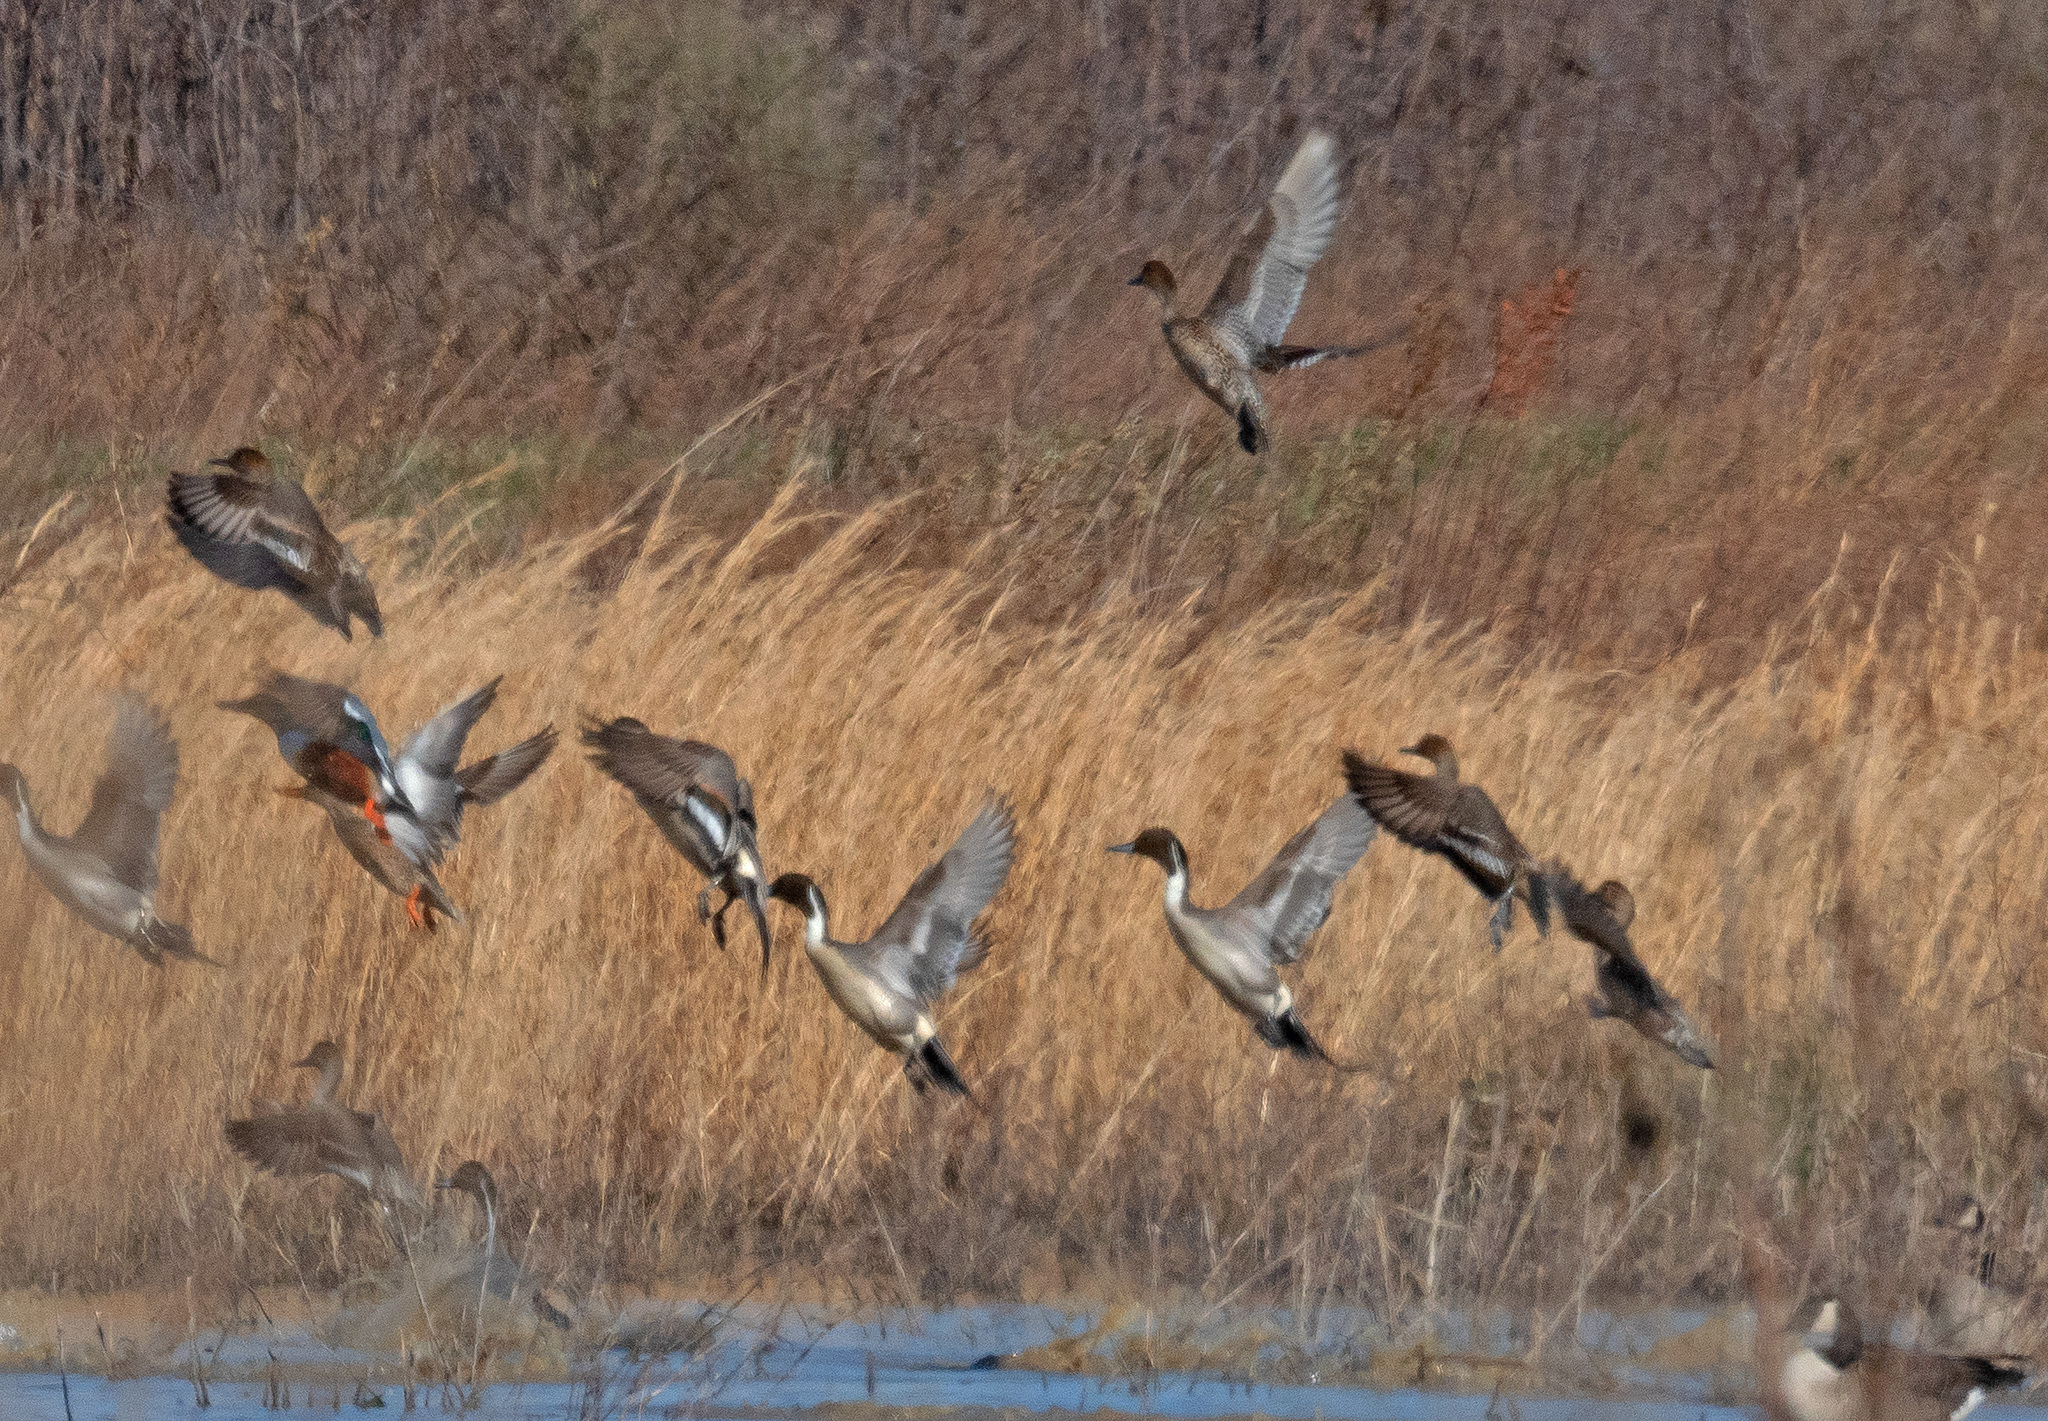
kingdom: Animalia
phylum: Chordata
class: Aves
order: Anseriformes
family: Anatidae
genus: Anas
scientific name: Anas acuta
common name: Northern pintail
